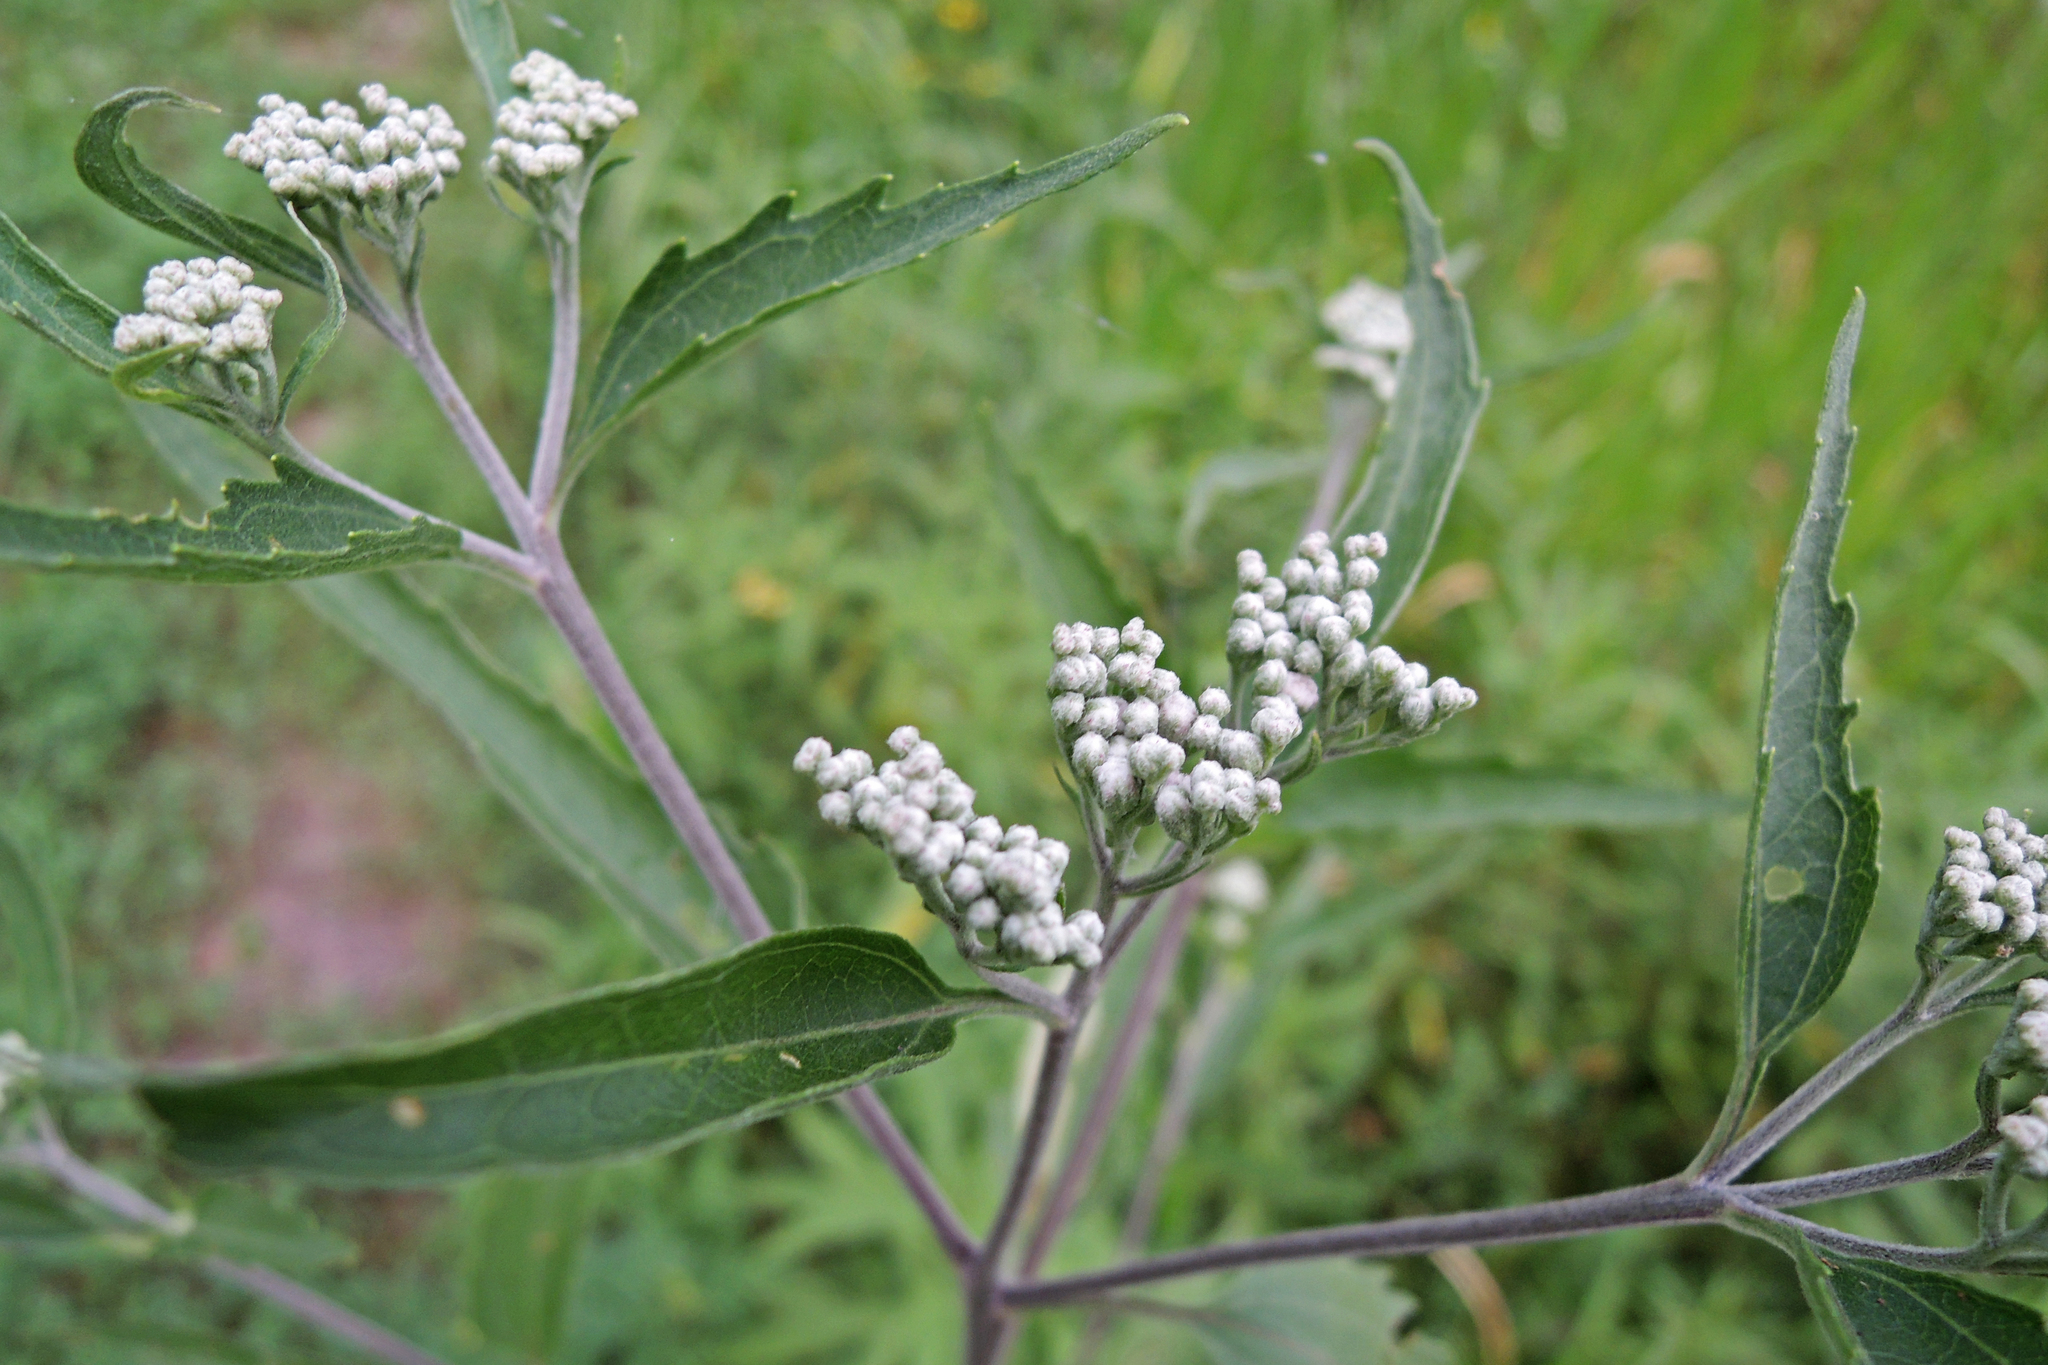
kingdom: Plantae
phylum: Tracheophyta
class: Magnoliopsida
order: Asterales
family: Asteraceae
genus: Eupatorium
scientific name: Eupatorium serotinum
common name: Late boneset
